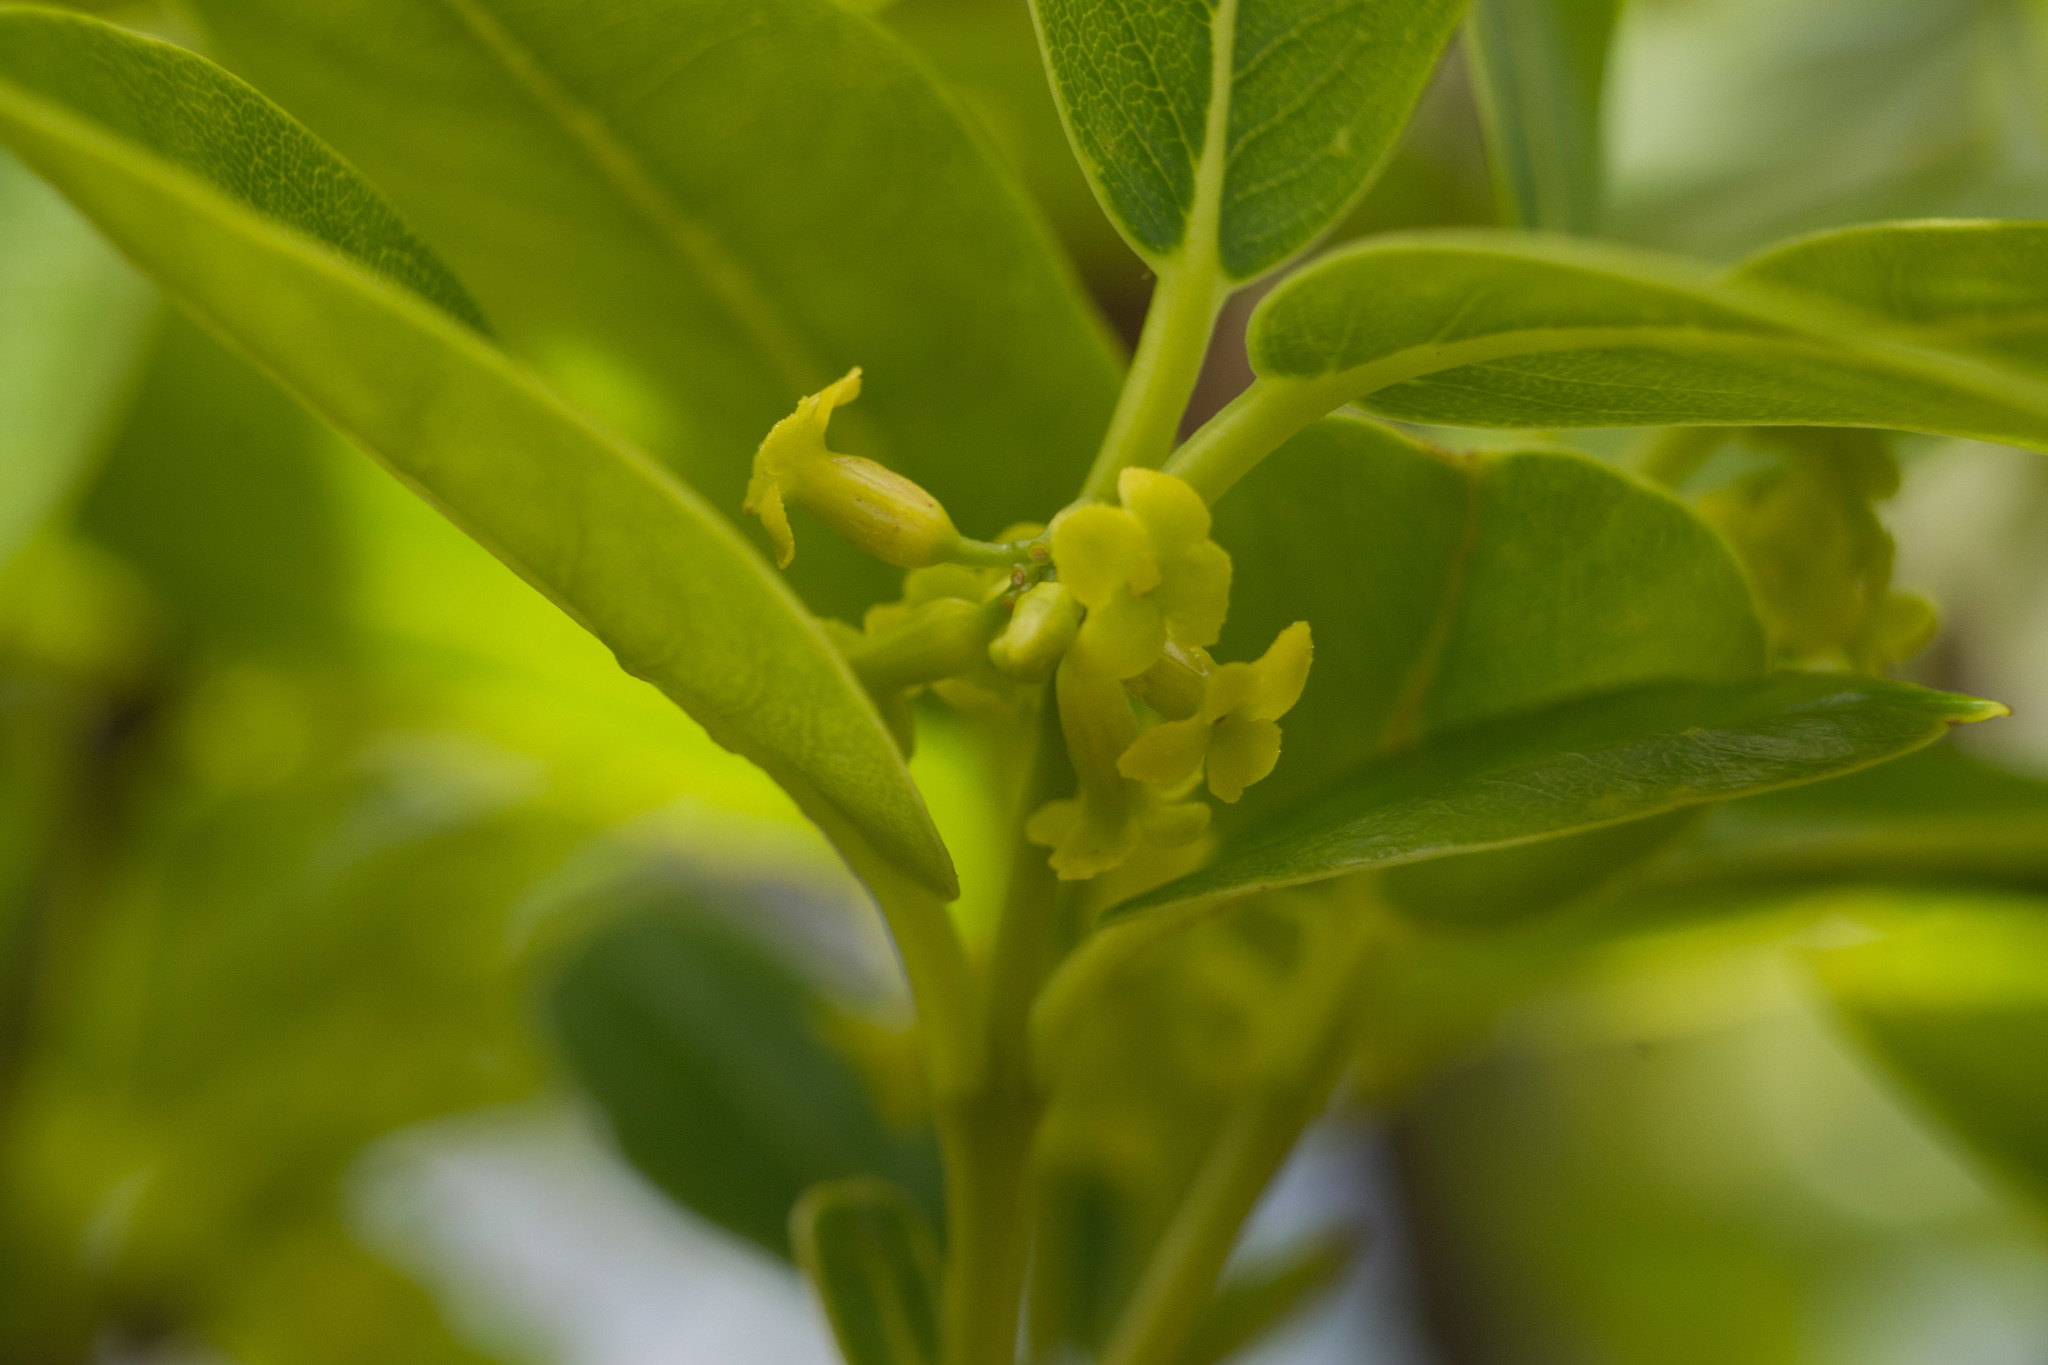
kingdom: Plantae
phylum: Tracheophyta
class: Magnoliopsida
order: Malvales
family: Thymelaeaceae
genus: Wikstroemia
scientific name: Wikstroemia oahuensis
